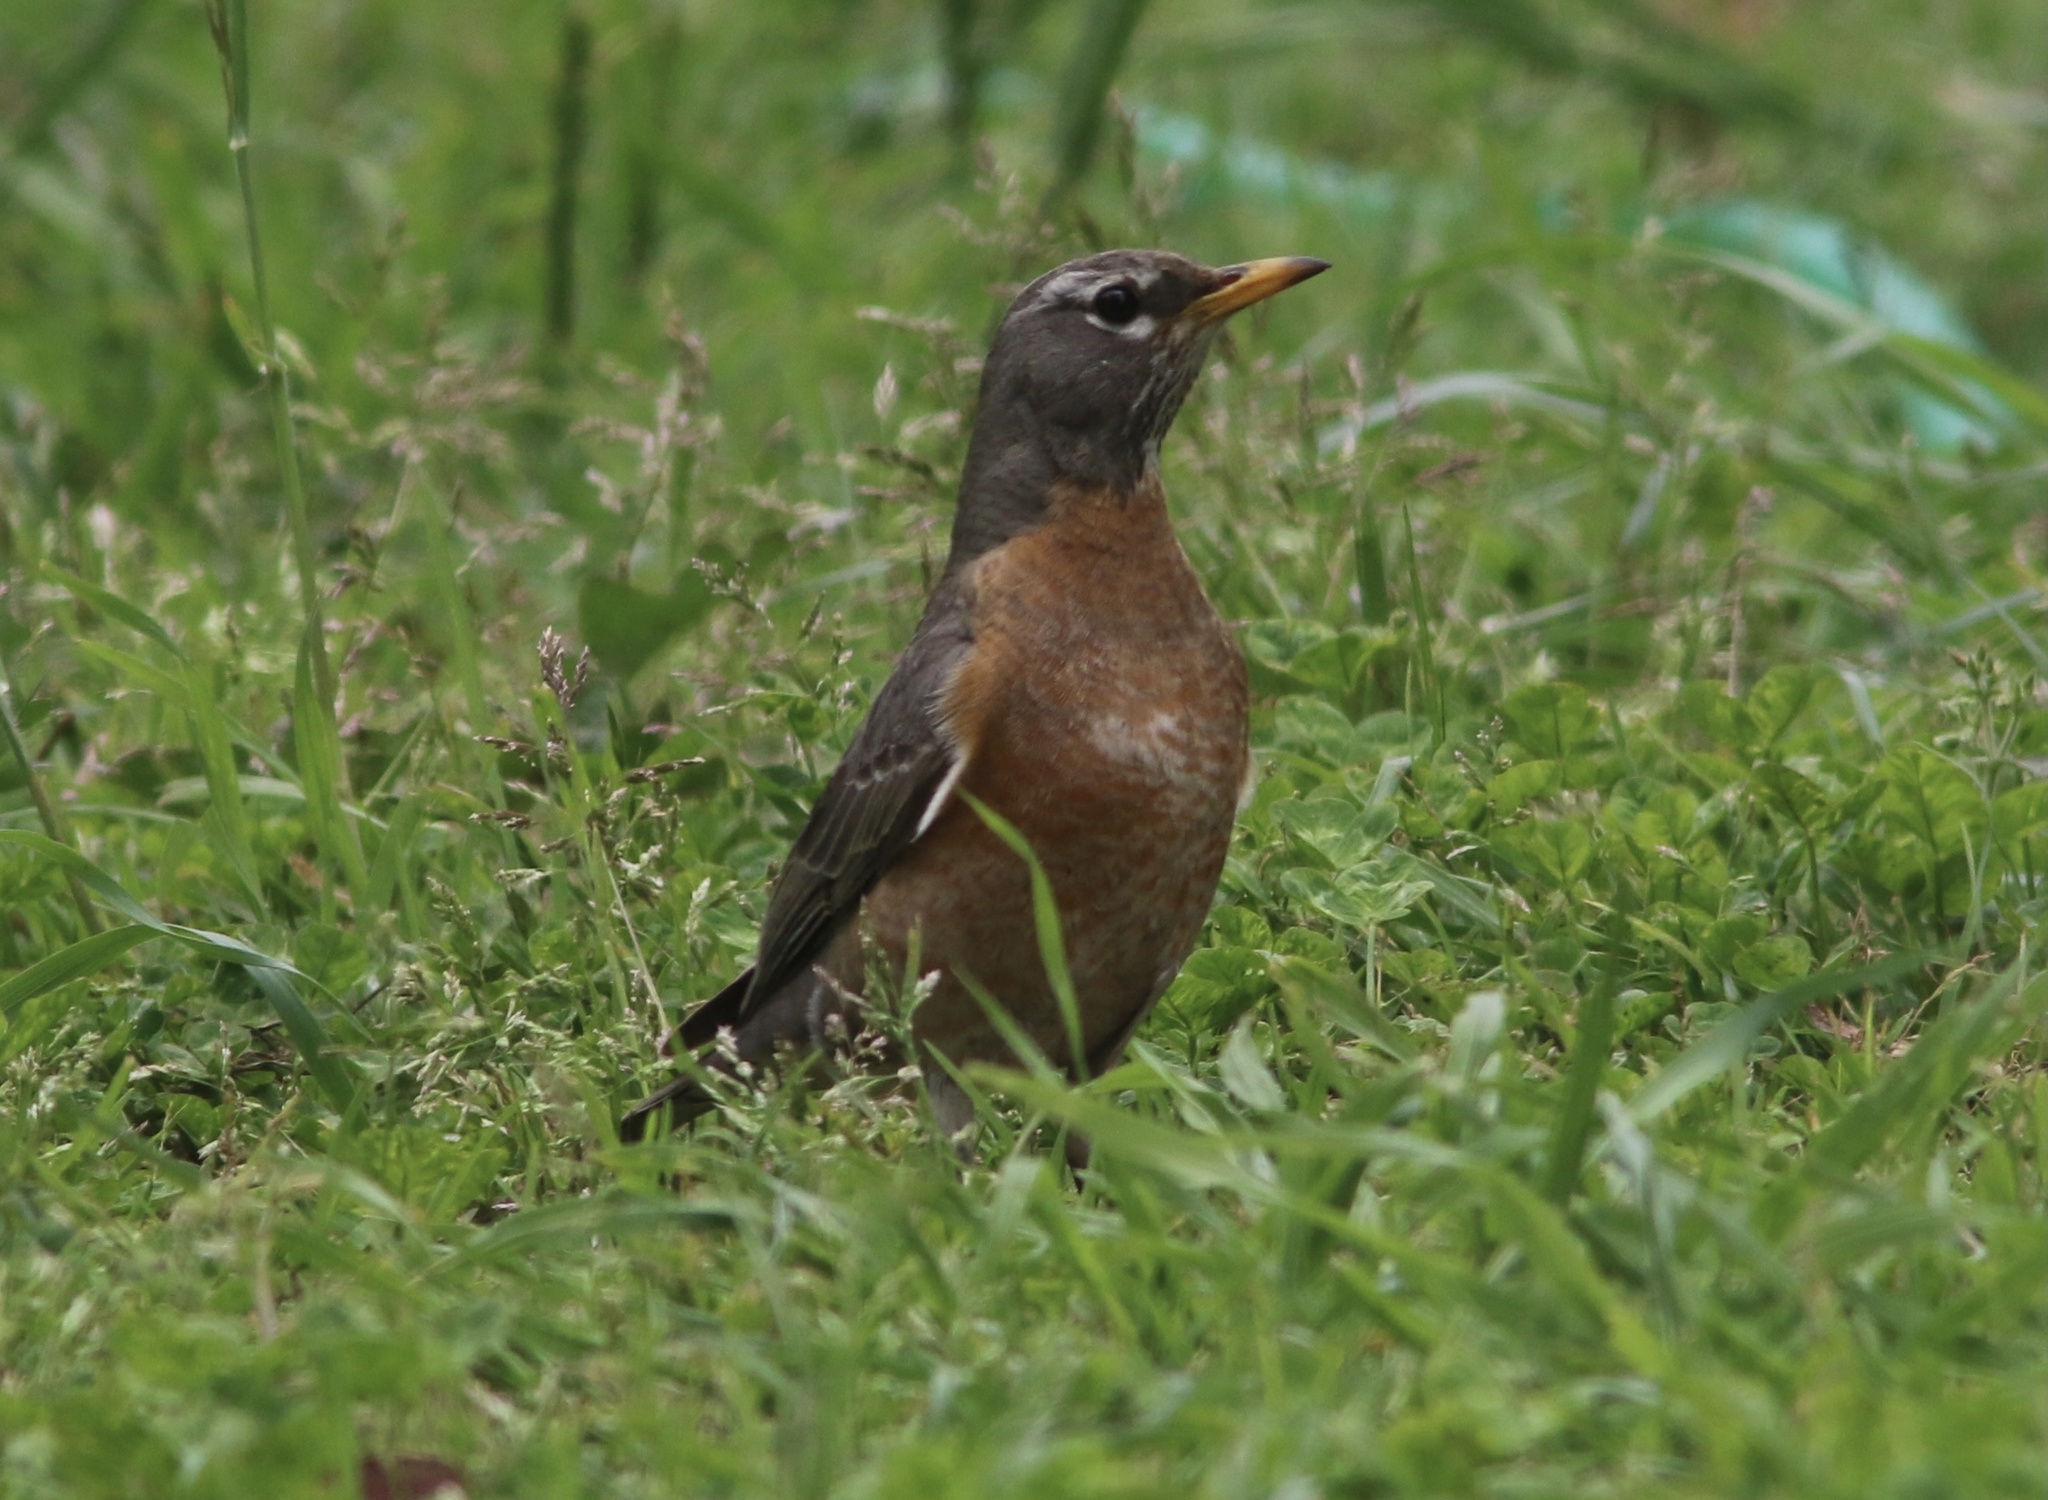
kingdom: Animalia
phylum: Chordata
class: Aves
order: Passeriformes
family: Turdidae
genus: Turdus
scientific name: Turdus migratorius
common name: American robin
